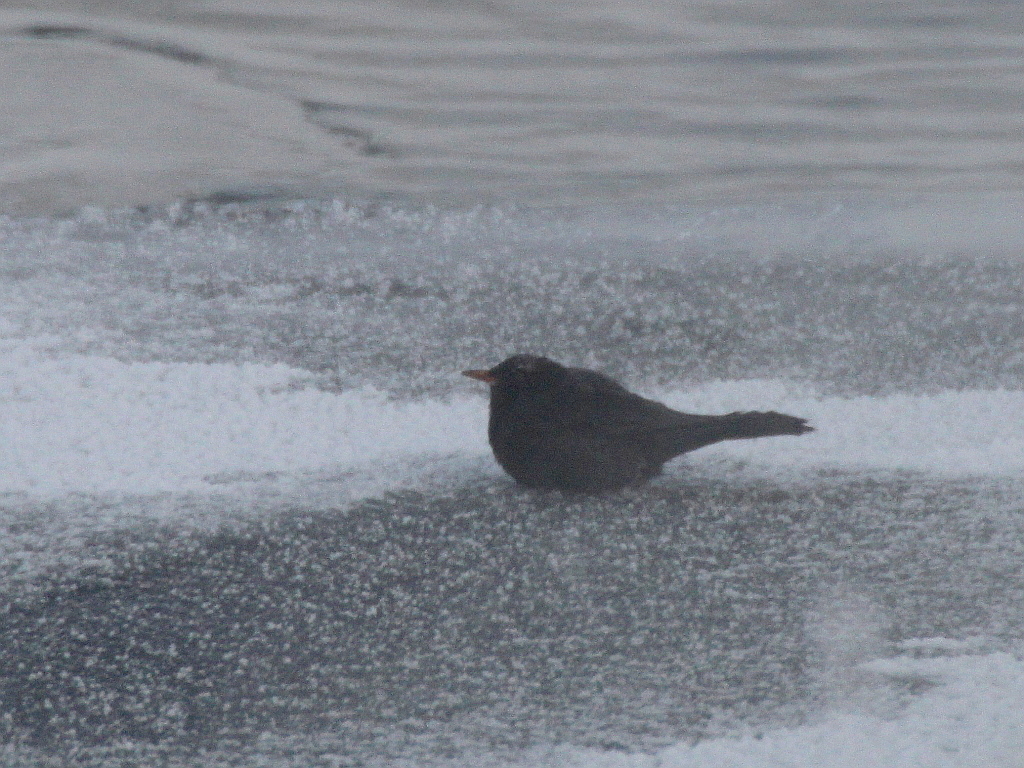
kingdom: Animalia
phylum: Chordata
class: Aves
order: Passeriformes
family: Turdidae
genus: Turdus
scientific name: Turdus merula
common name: Common blackbird
